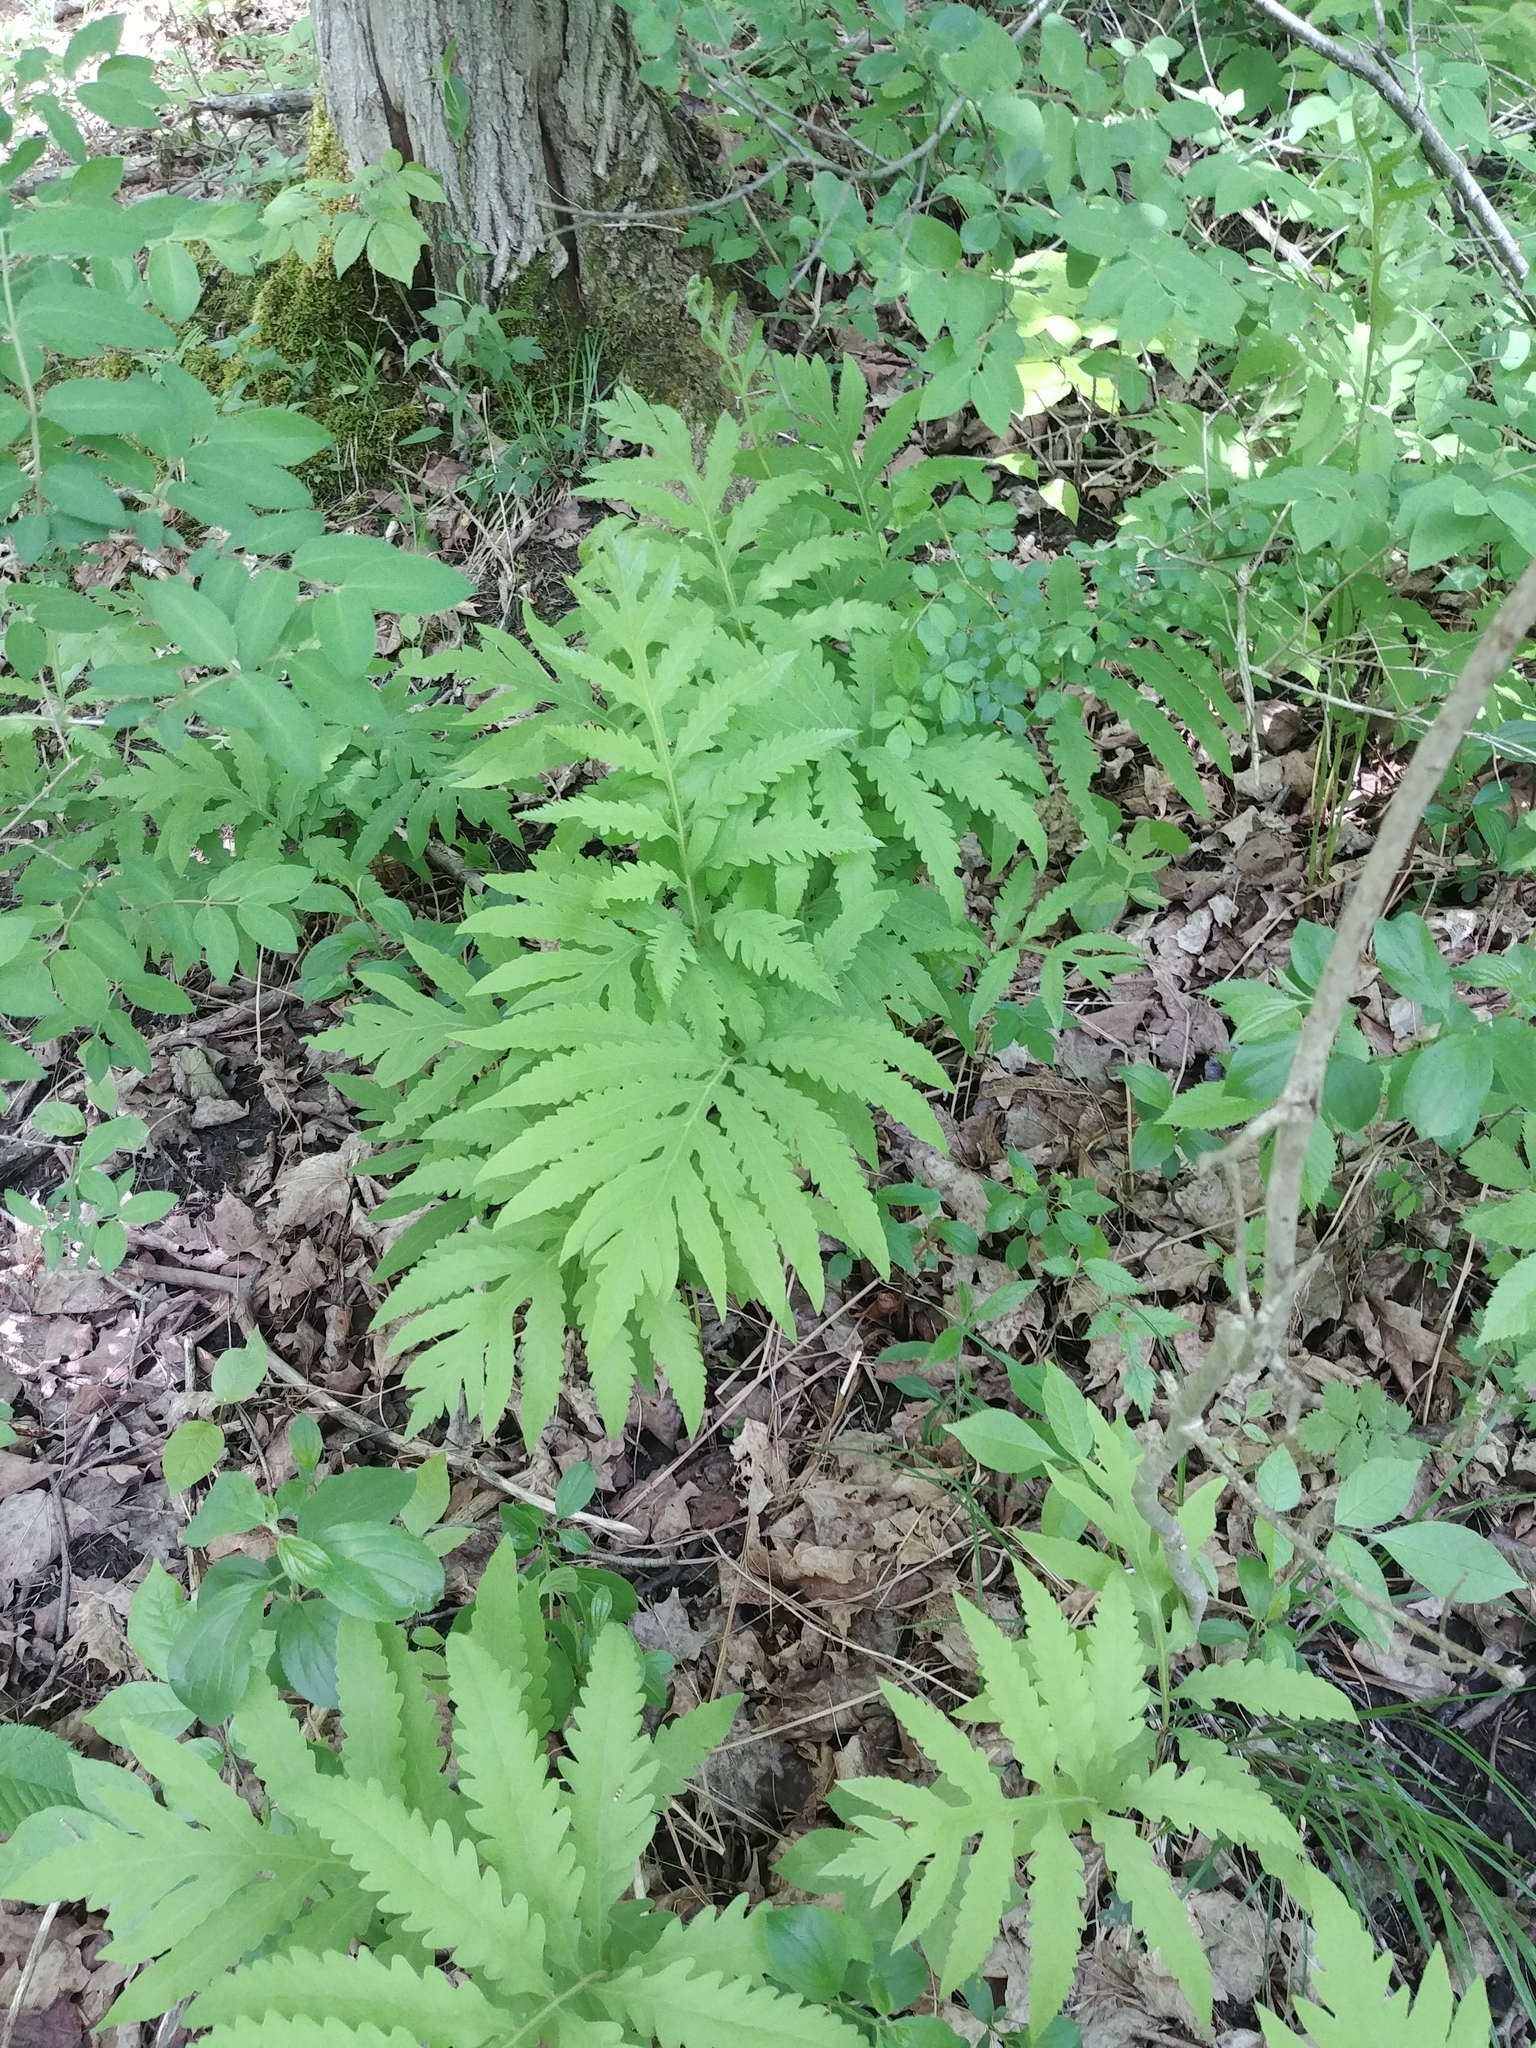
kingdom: Plantae
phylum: Tracheophyta
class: Polypodiopsida
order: Polypodiales
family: Onocleaceae
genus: Onoclea
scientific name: Onoclea sensibilis
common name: Sensitive fern
